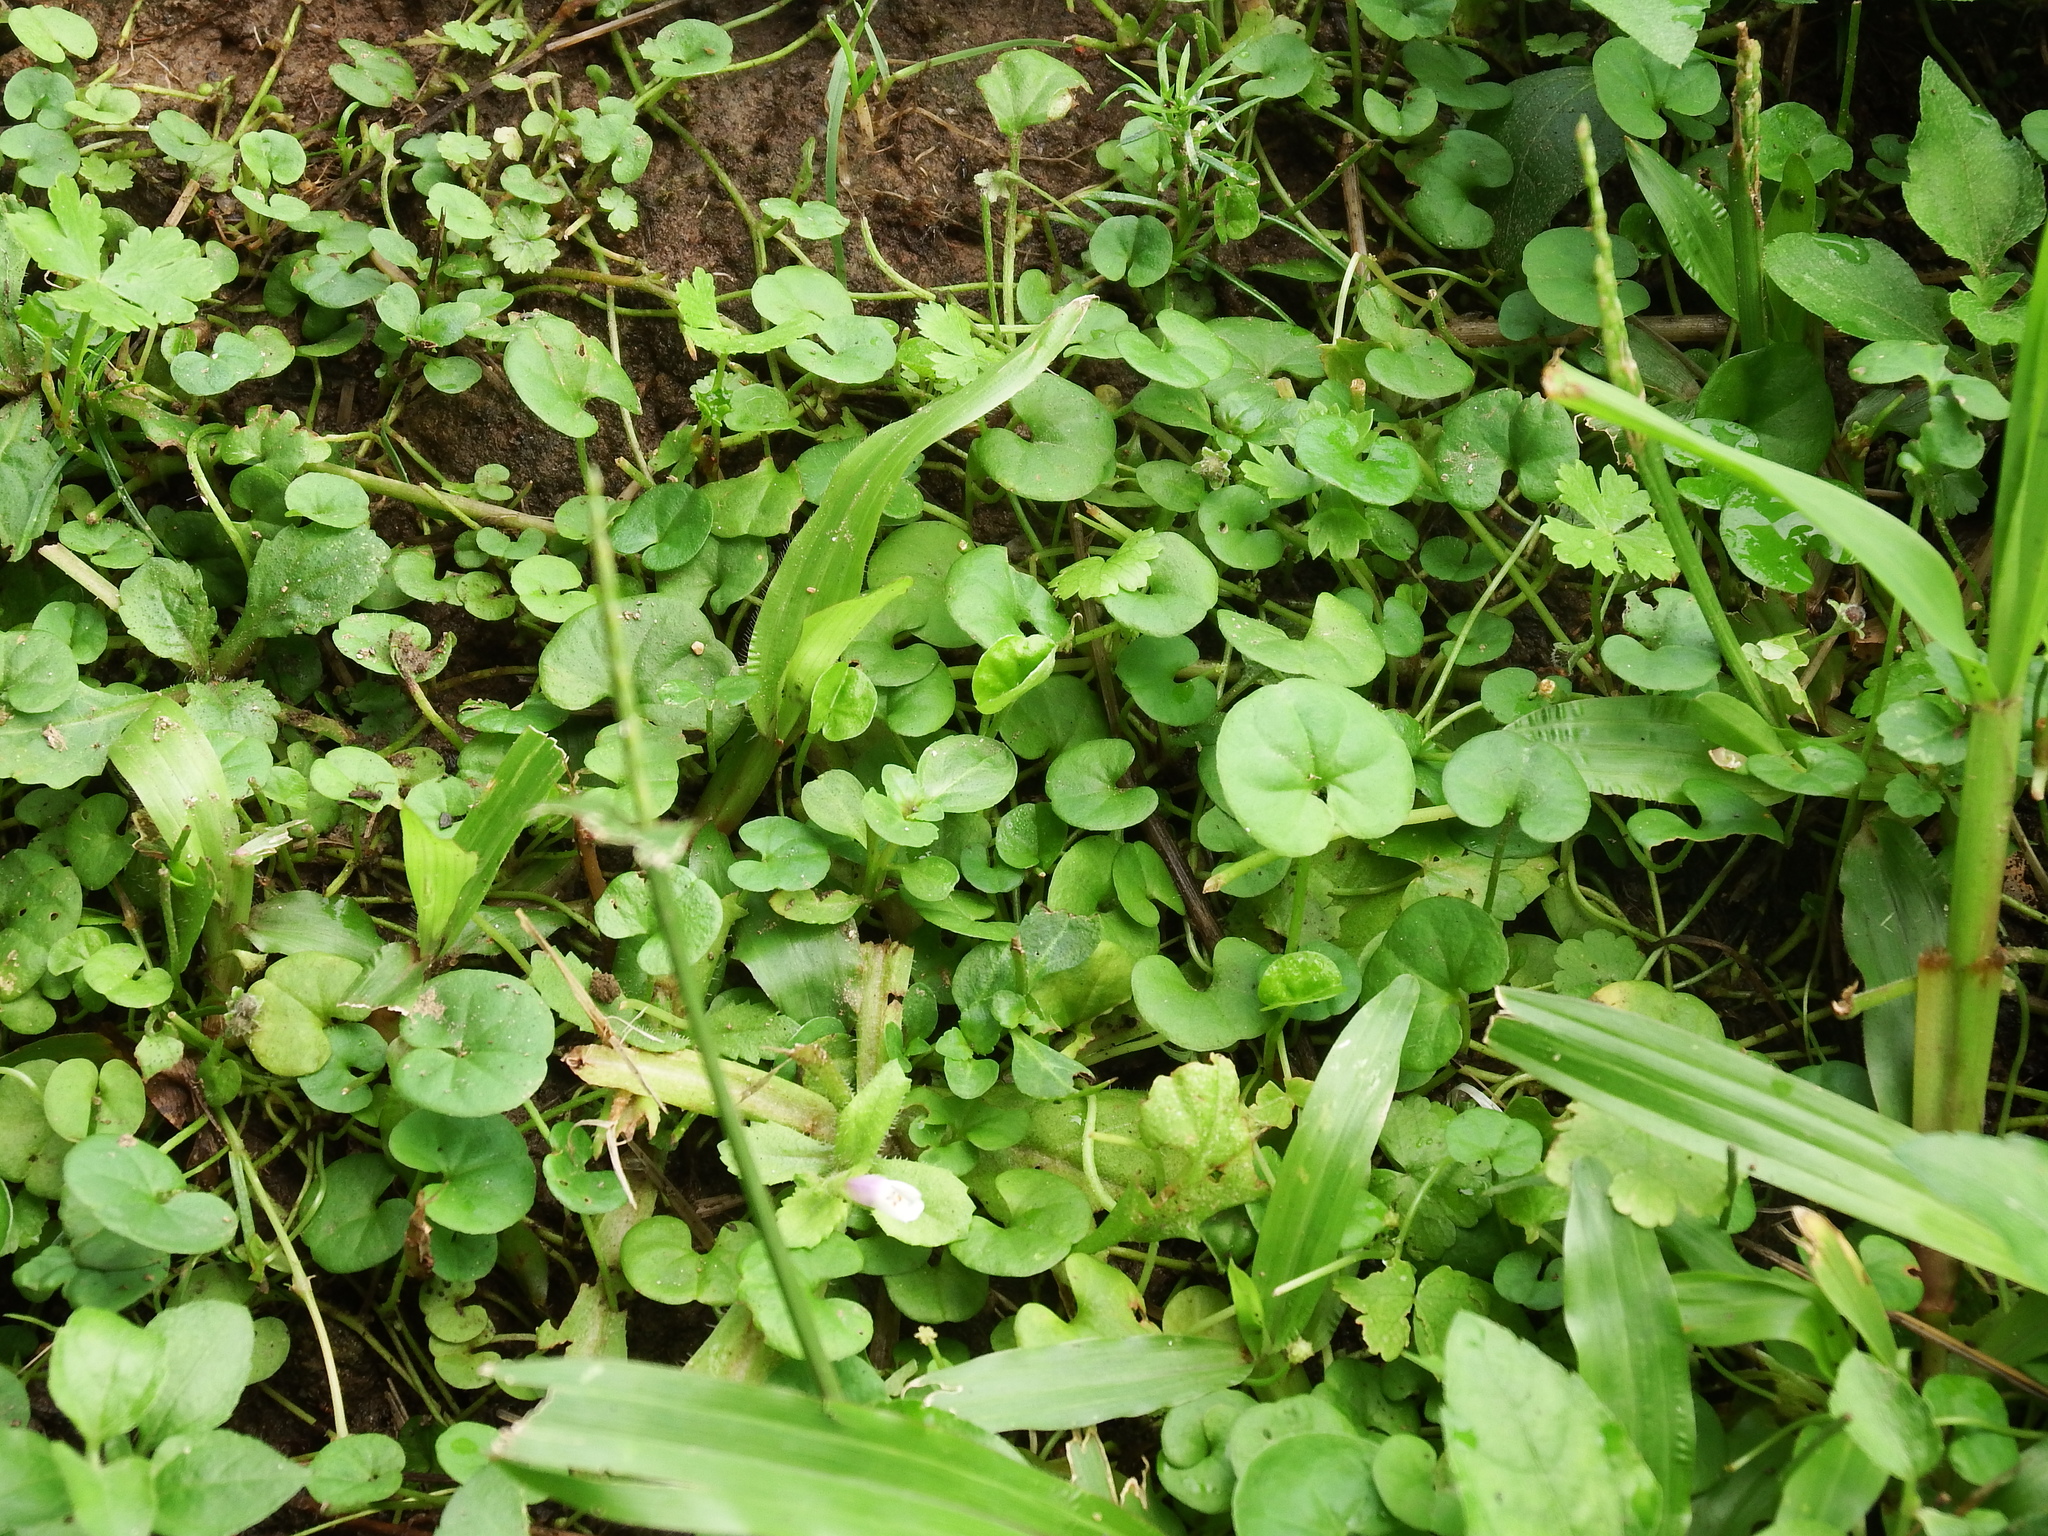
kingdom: Plantae
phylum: Tracheophyta
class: Magnoliopsida
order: Solanales
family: Convolvulaceae
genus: Dichondra
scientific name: Dichondra micrantha
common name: Kidneyweed
